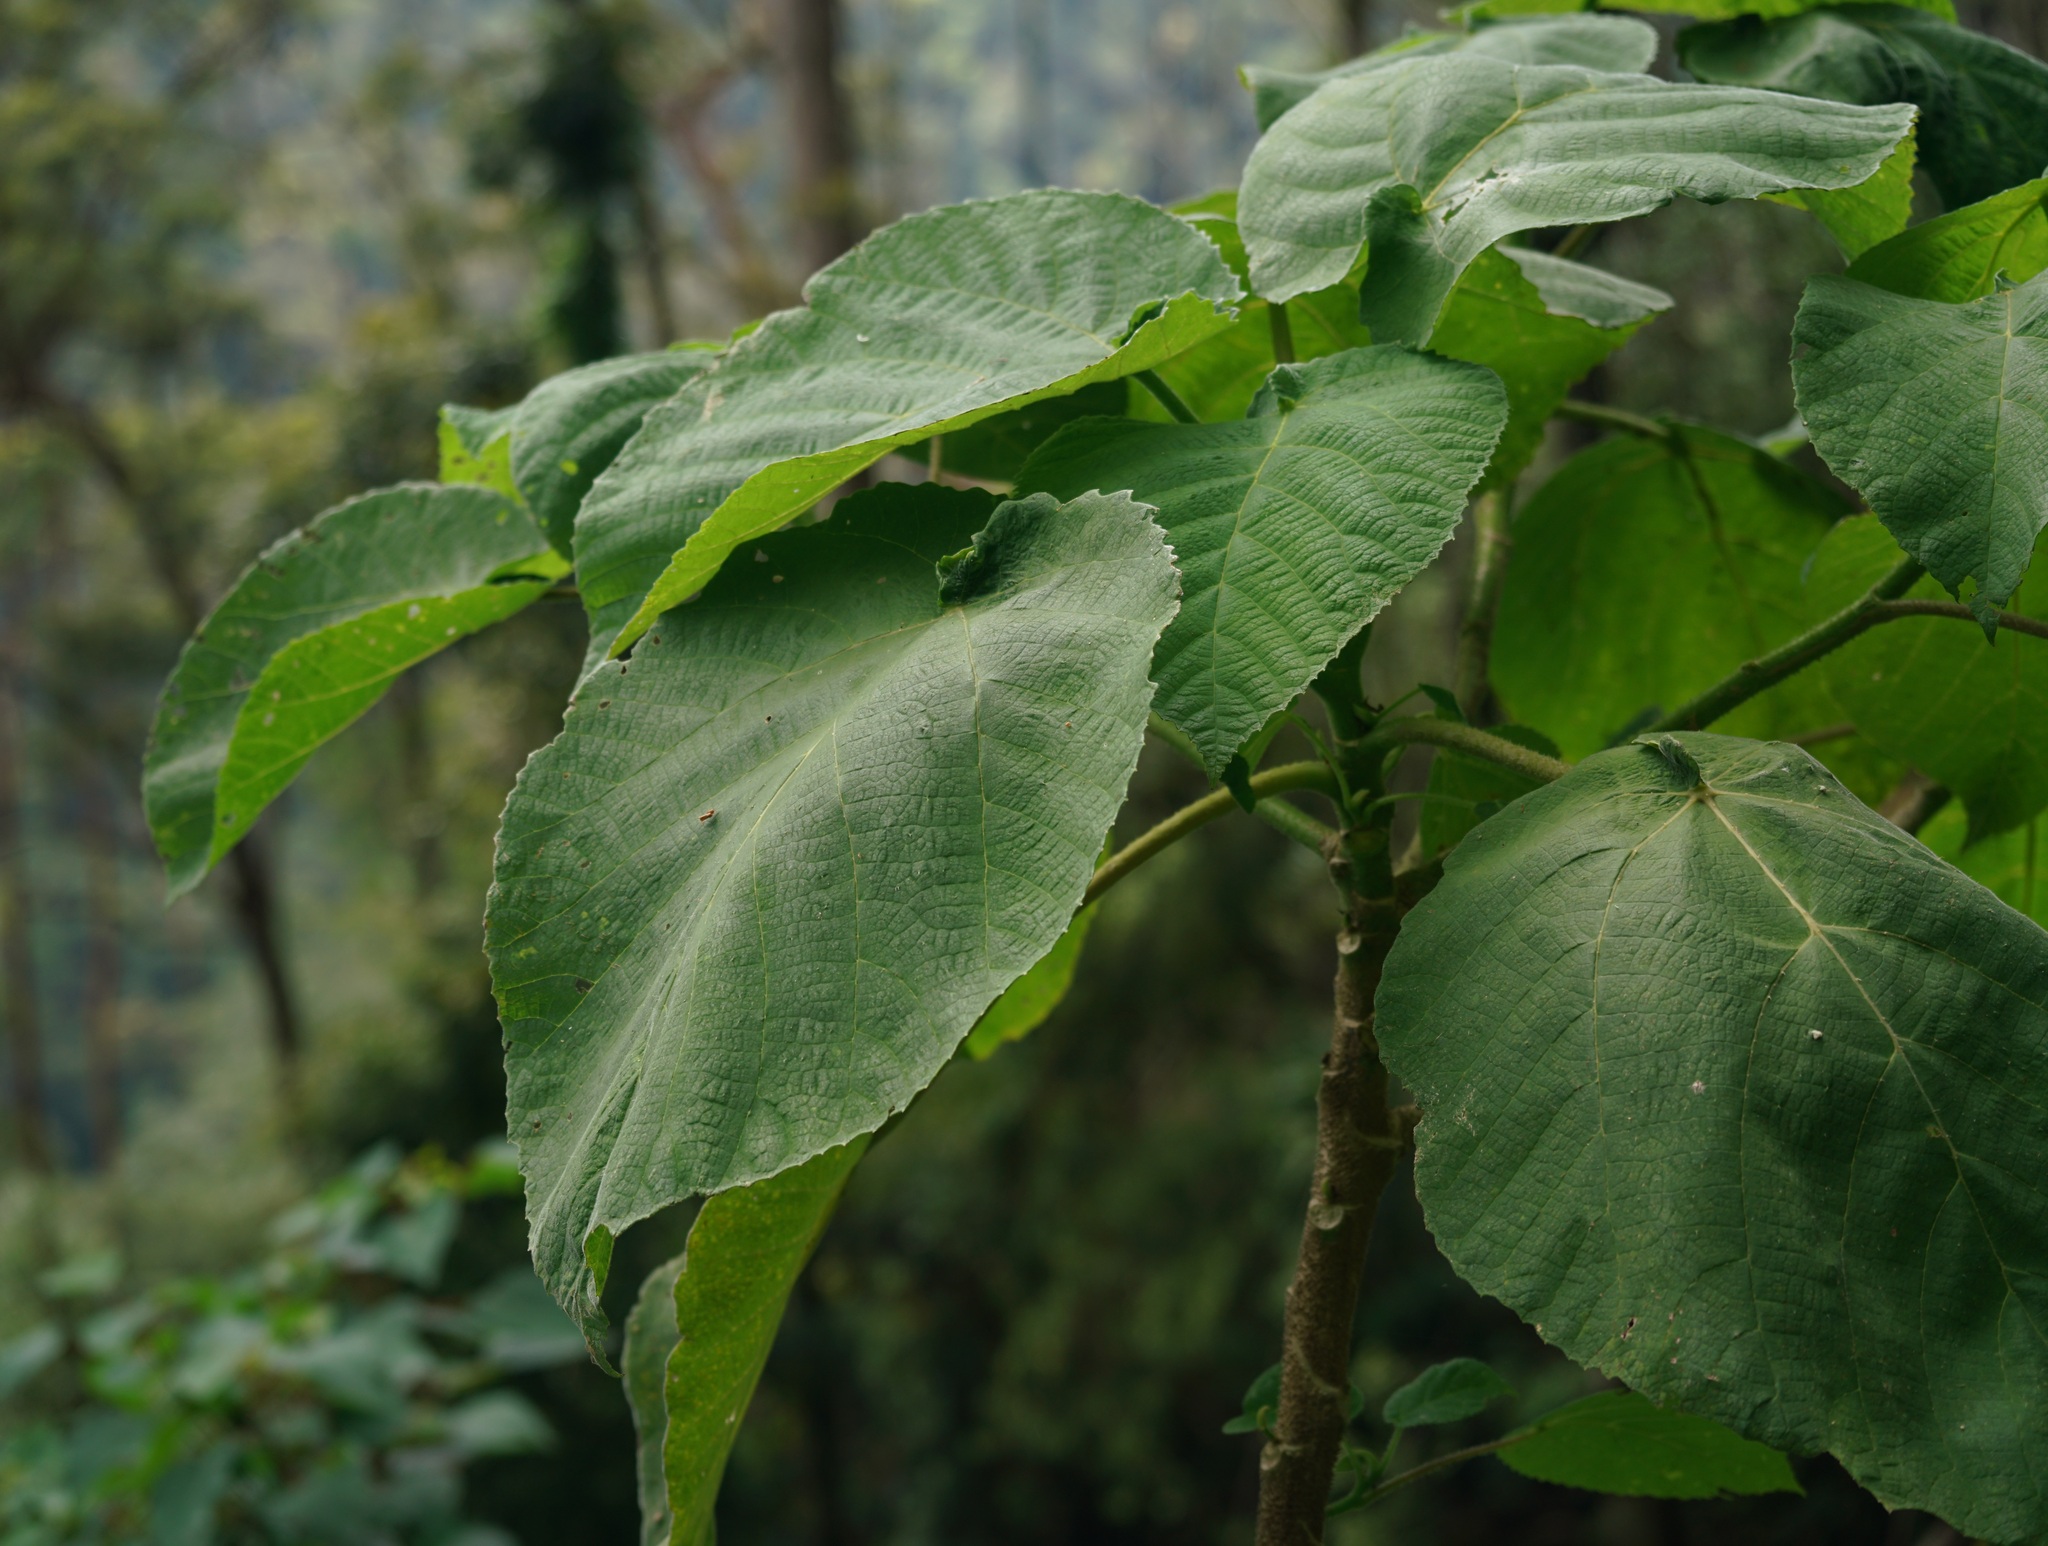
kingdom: Plantae
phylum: Tracheophyta
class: Magnoliopsida
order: Rosales
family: Urticaceae
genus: Dendrocnide
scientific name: Dendrocnide excelsa
